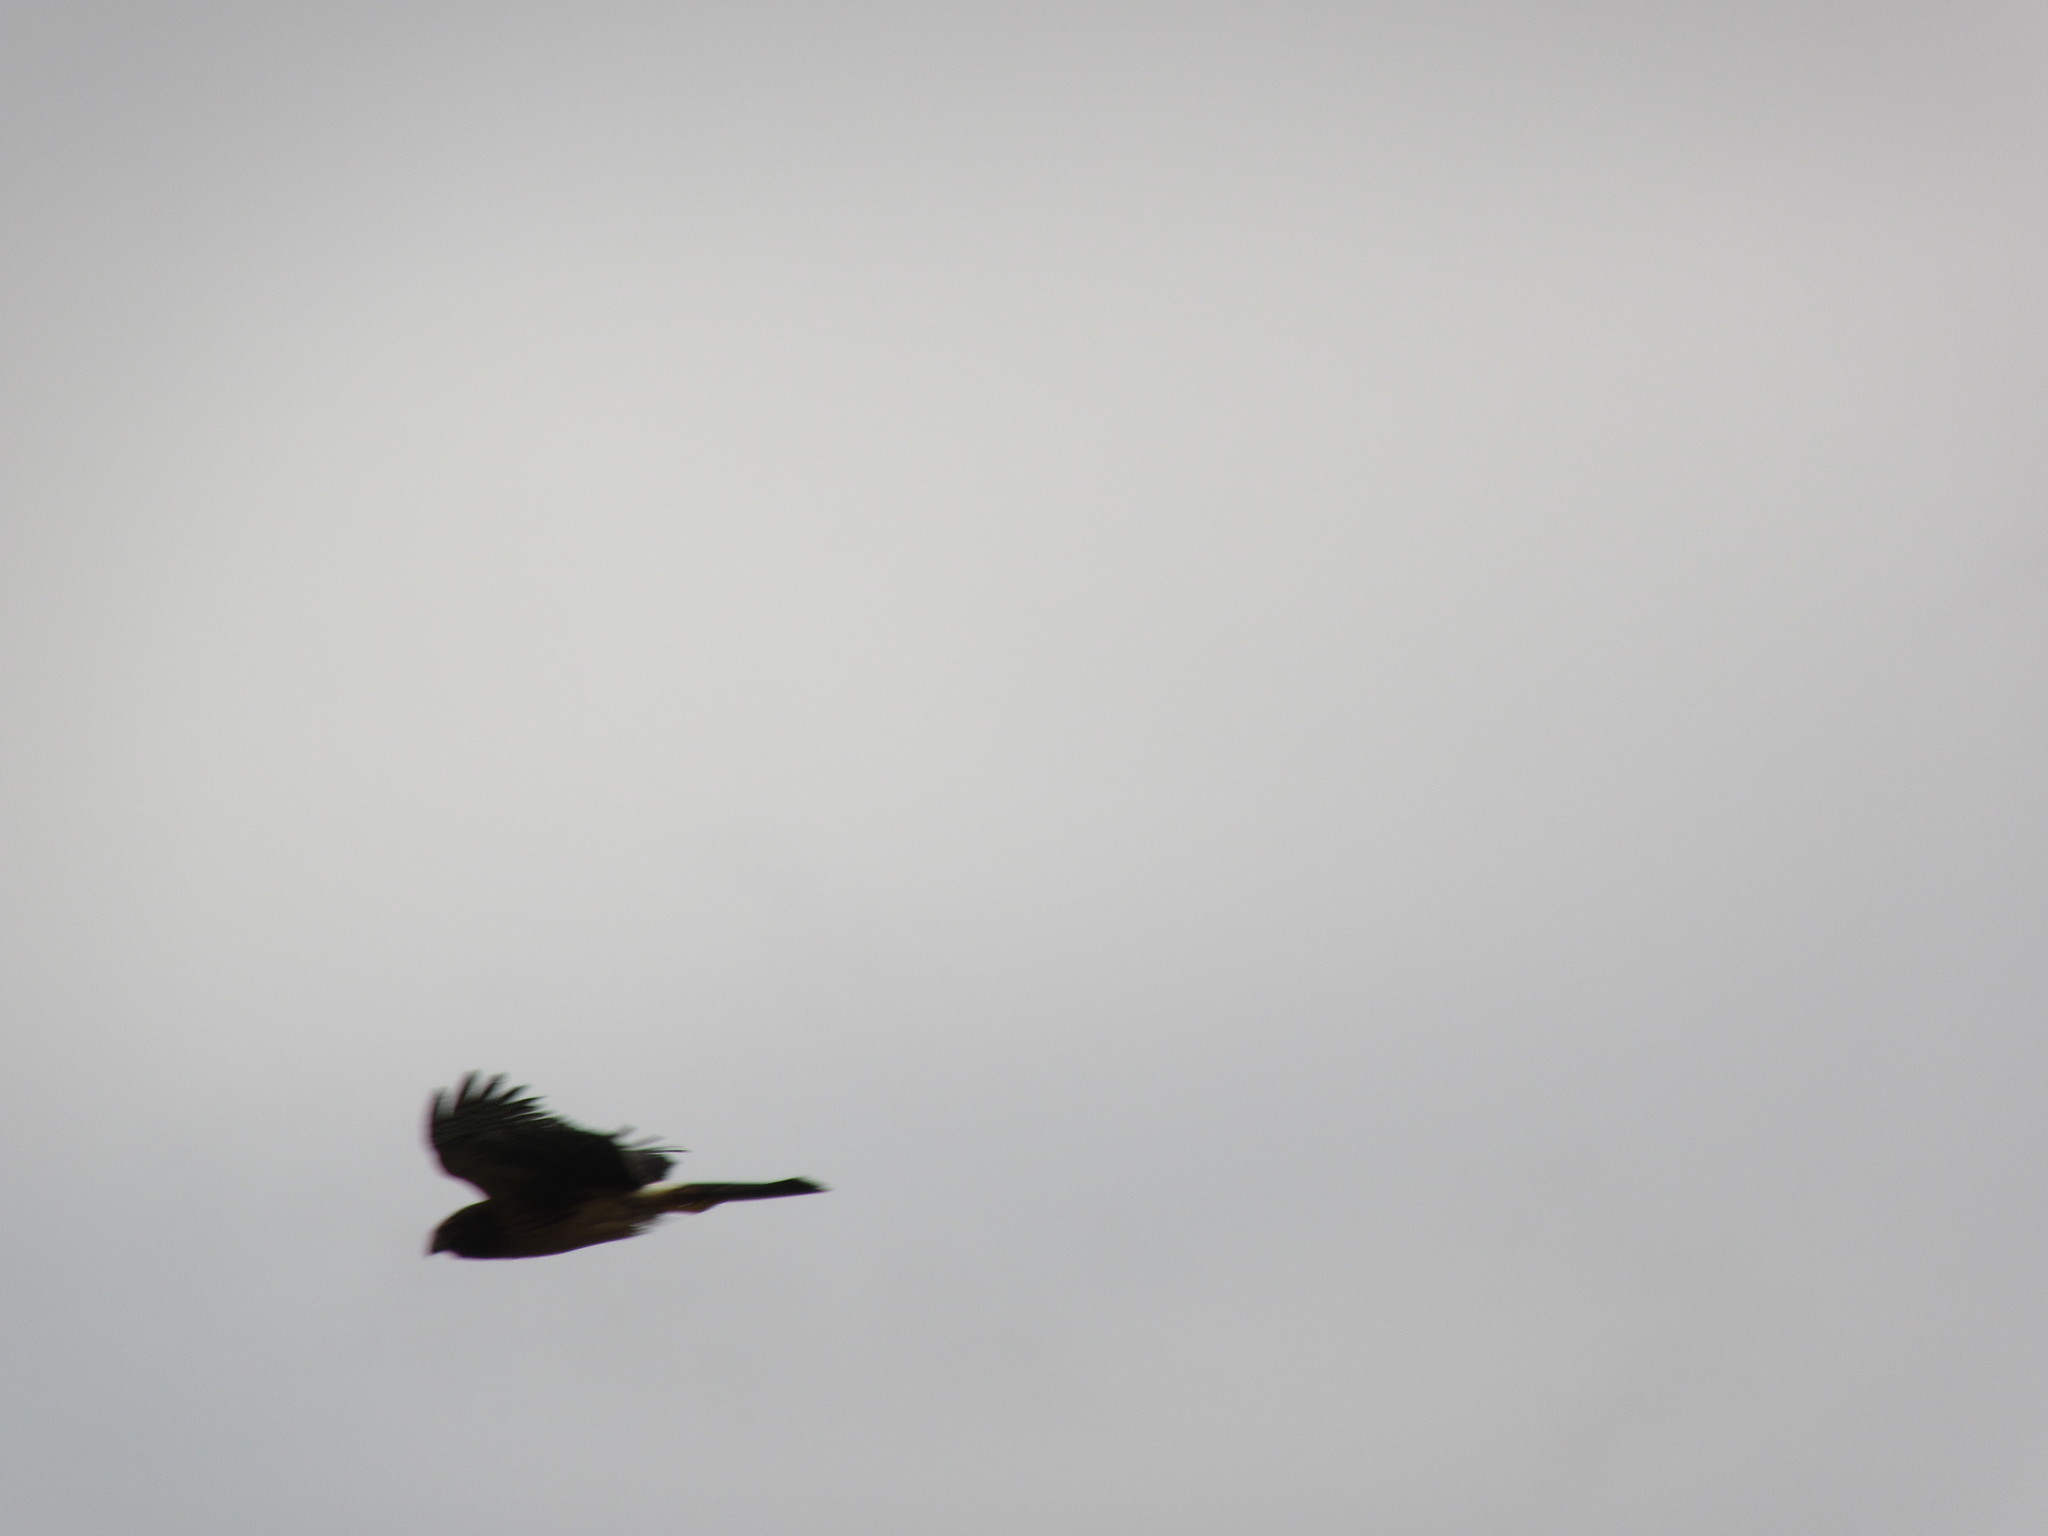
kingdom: Animalia
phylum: Chordata
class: Aves
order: Accipitriformes
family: Accipitridae
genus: Circus
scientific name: Circus cyaneus
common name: Hen harrier
